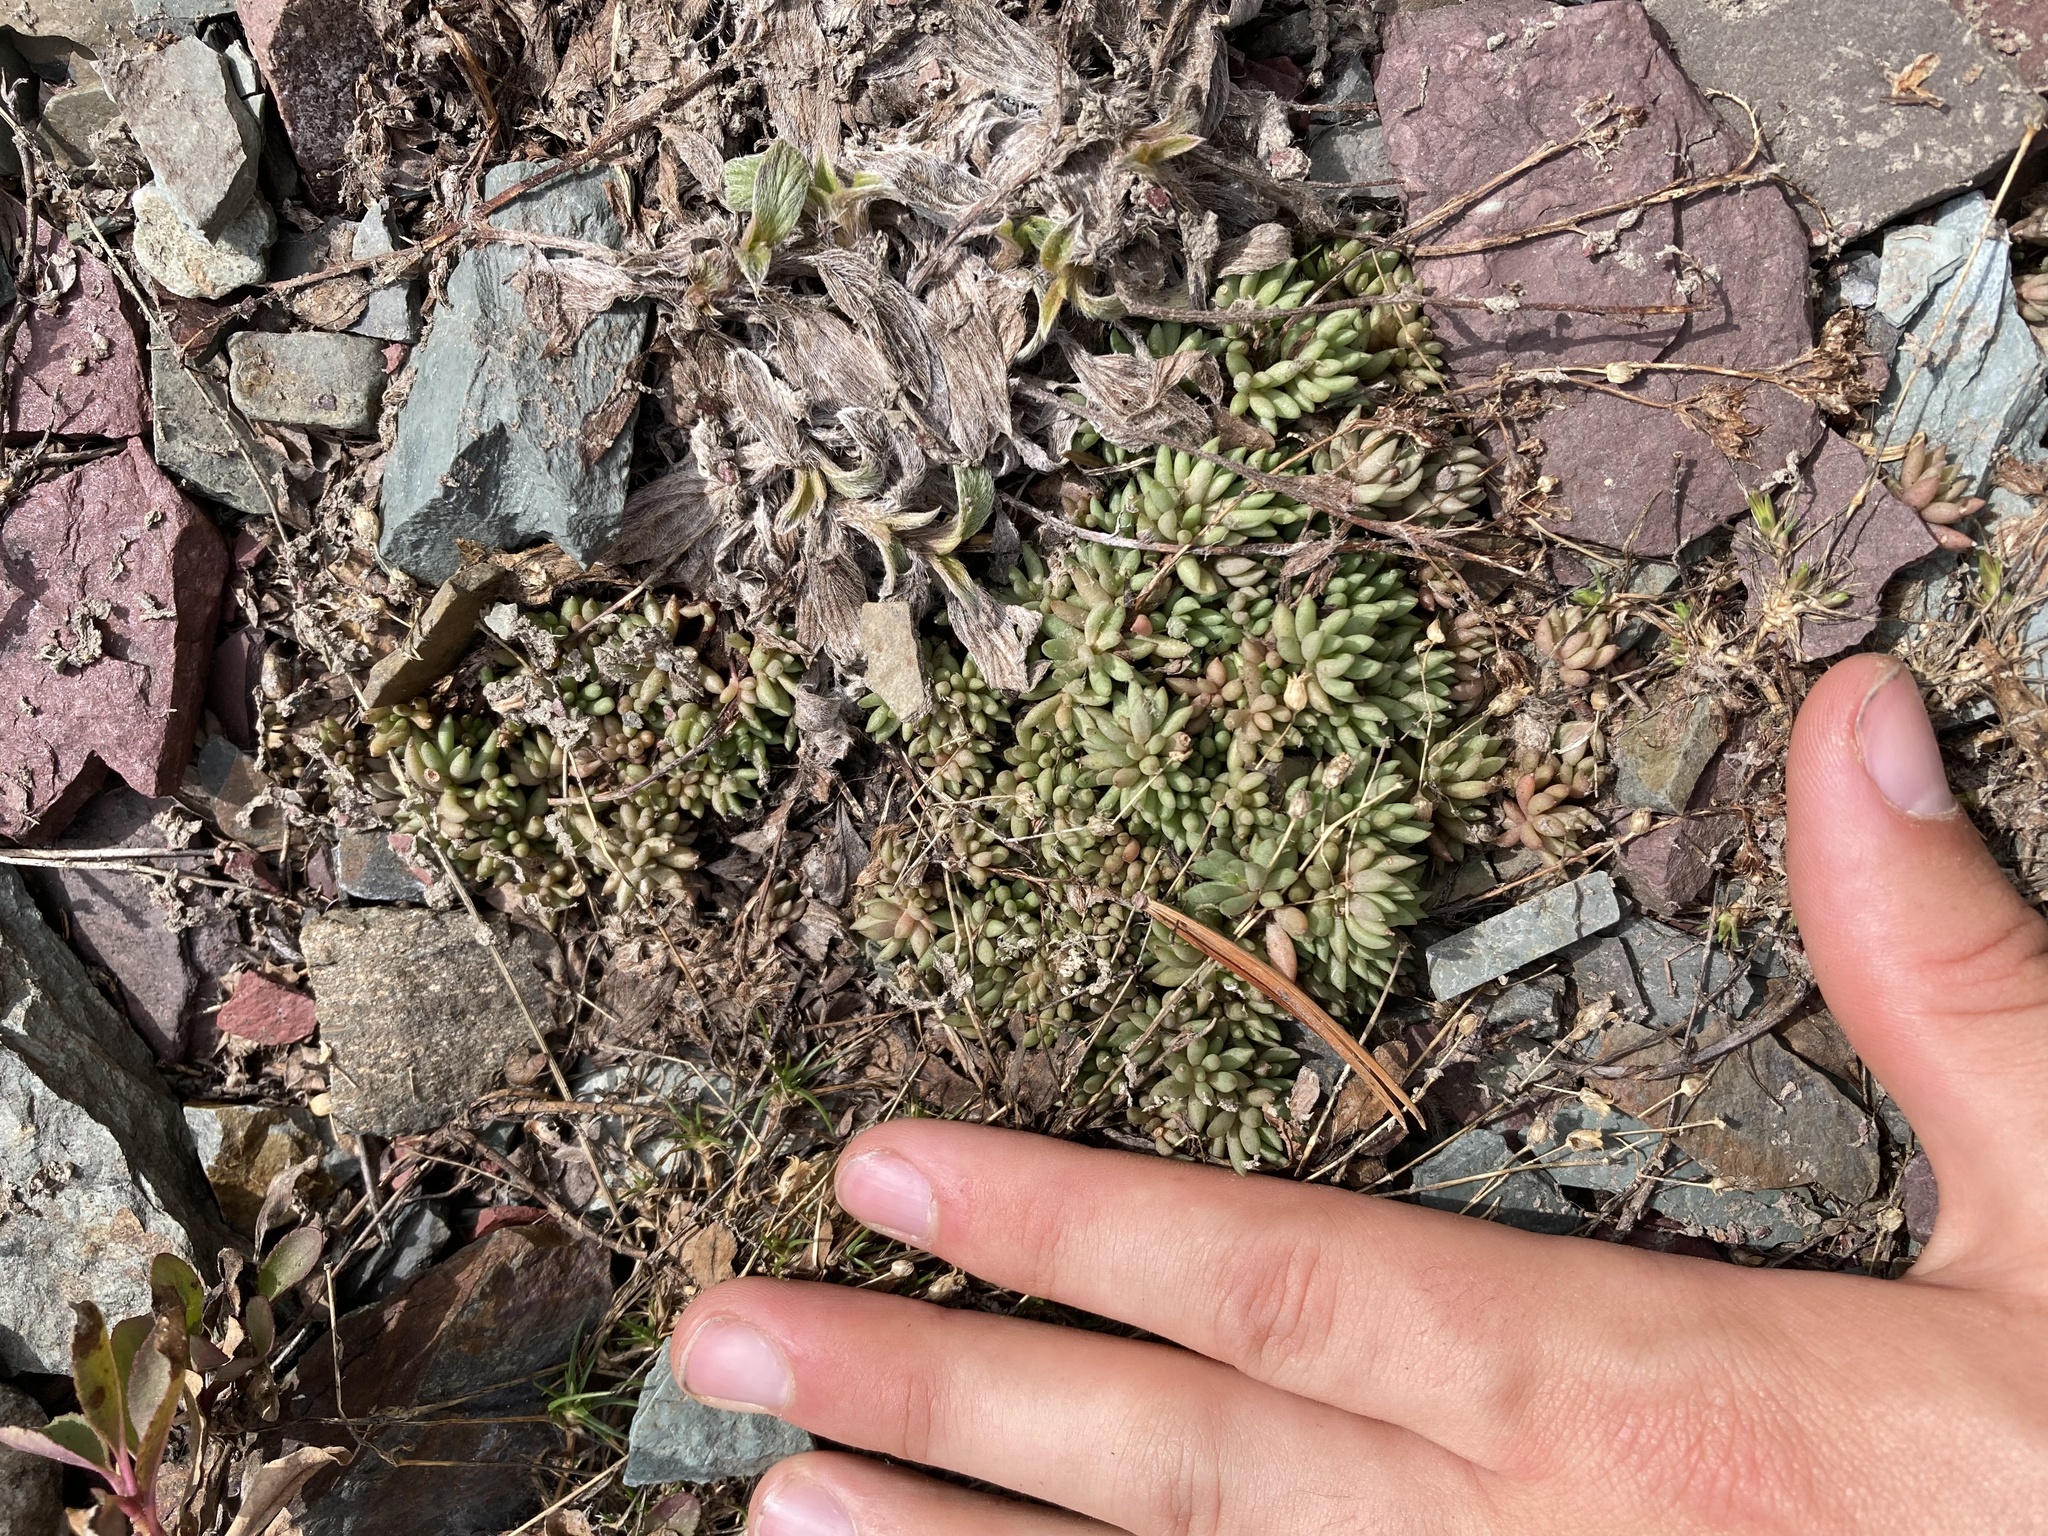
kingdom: Plantae
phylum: Tracheophyta
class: Magnoliopsida
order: Saxifragales
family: Crassulaceae
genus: Sedum
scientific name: Sedum lanceolatum
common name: Common stonecrop
